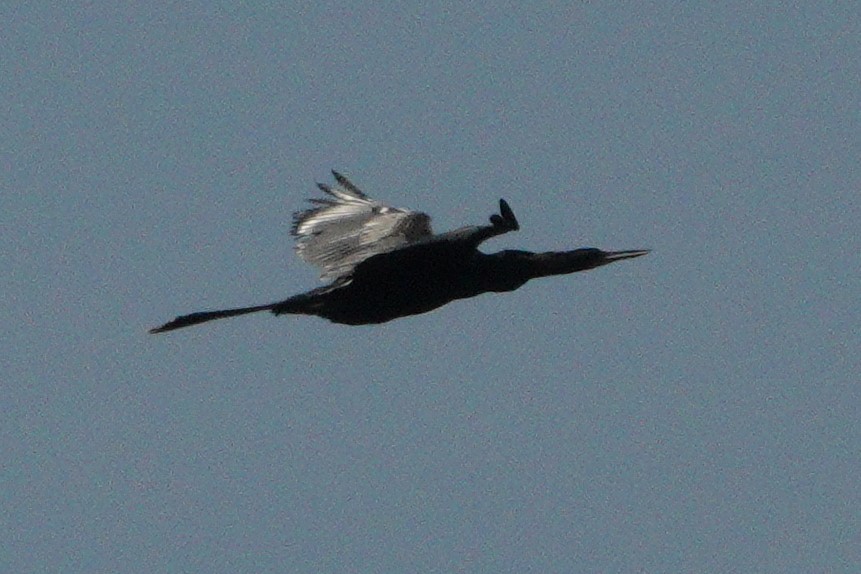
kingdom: Animalia
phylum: Chordata
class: Aves
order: Suliformes
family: Anhingidae
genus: Anhinga
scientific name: Anhinga anhinga
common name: Anhinga
